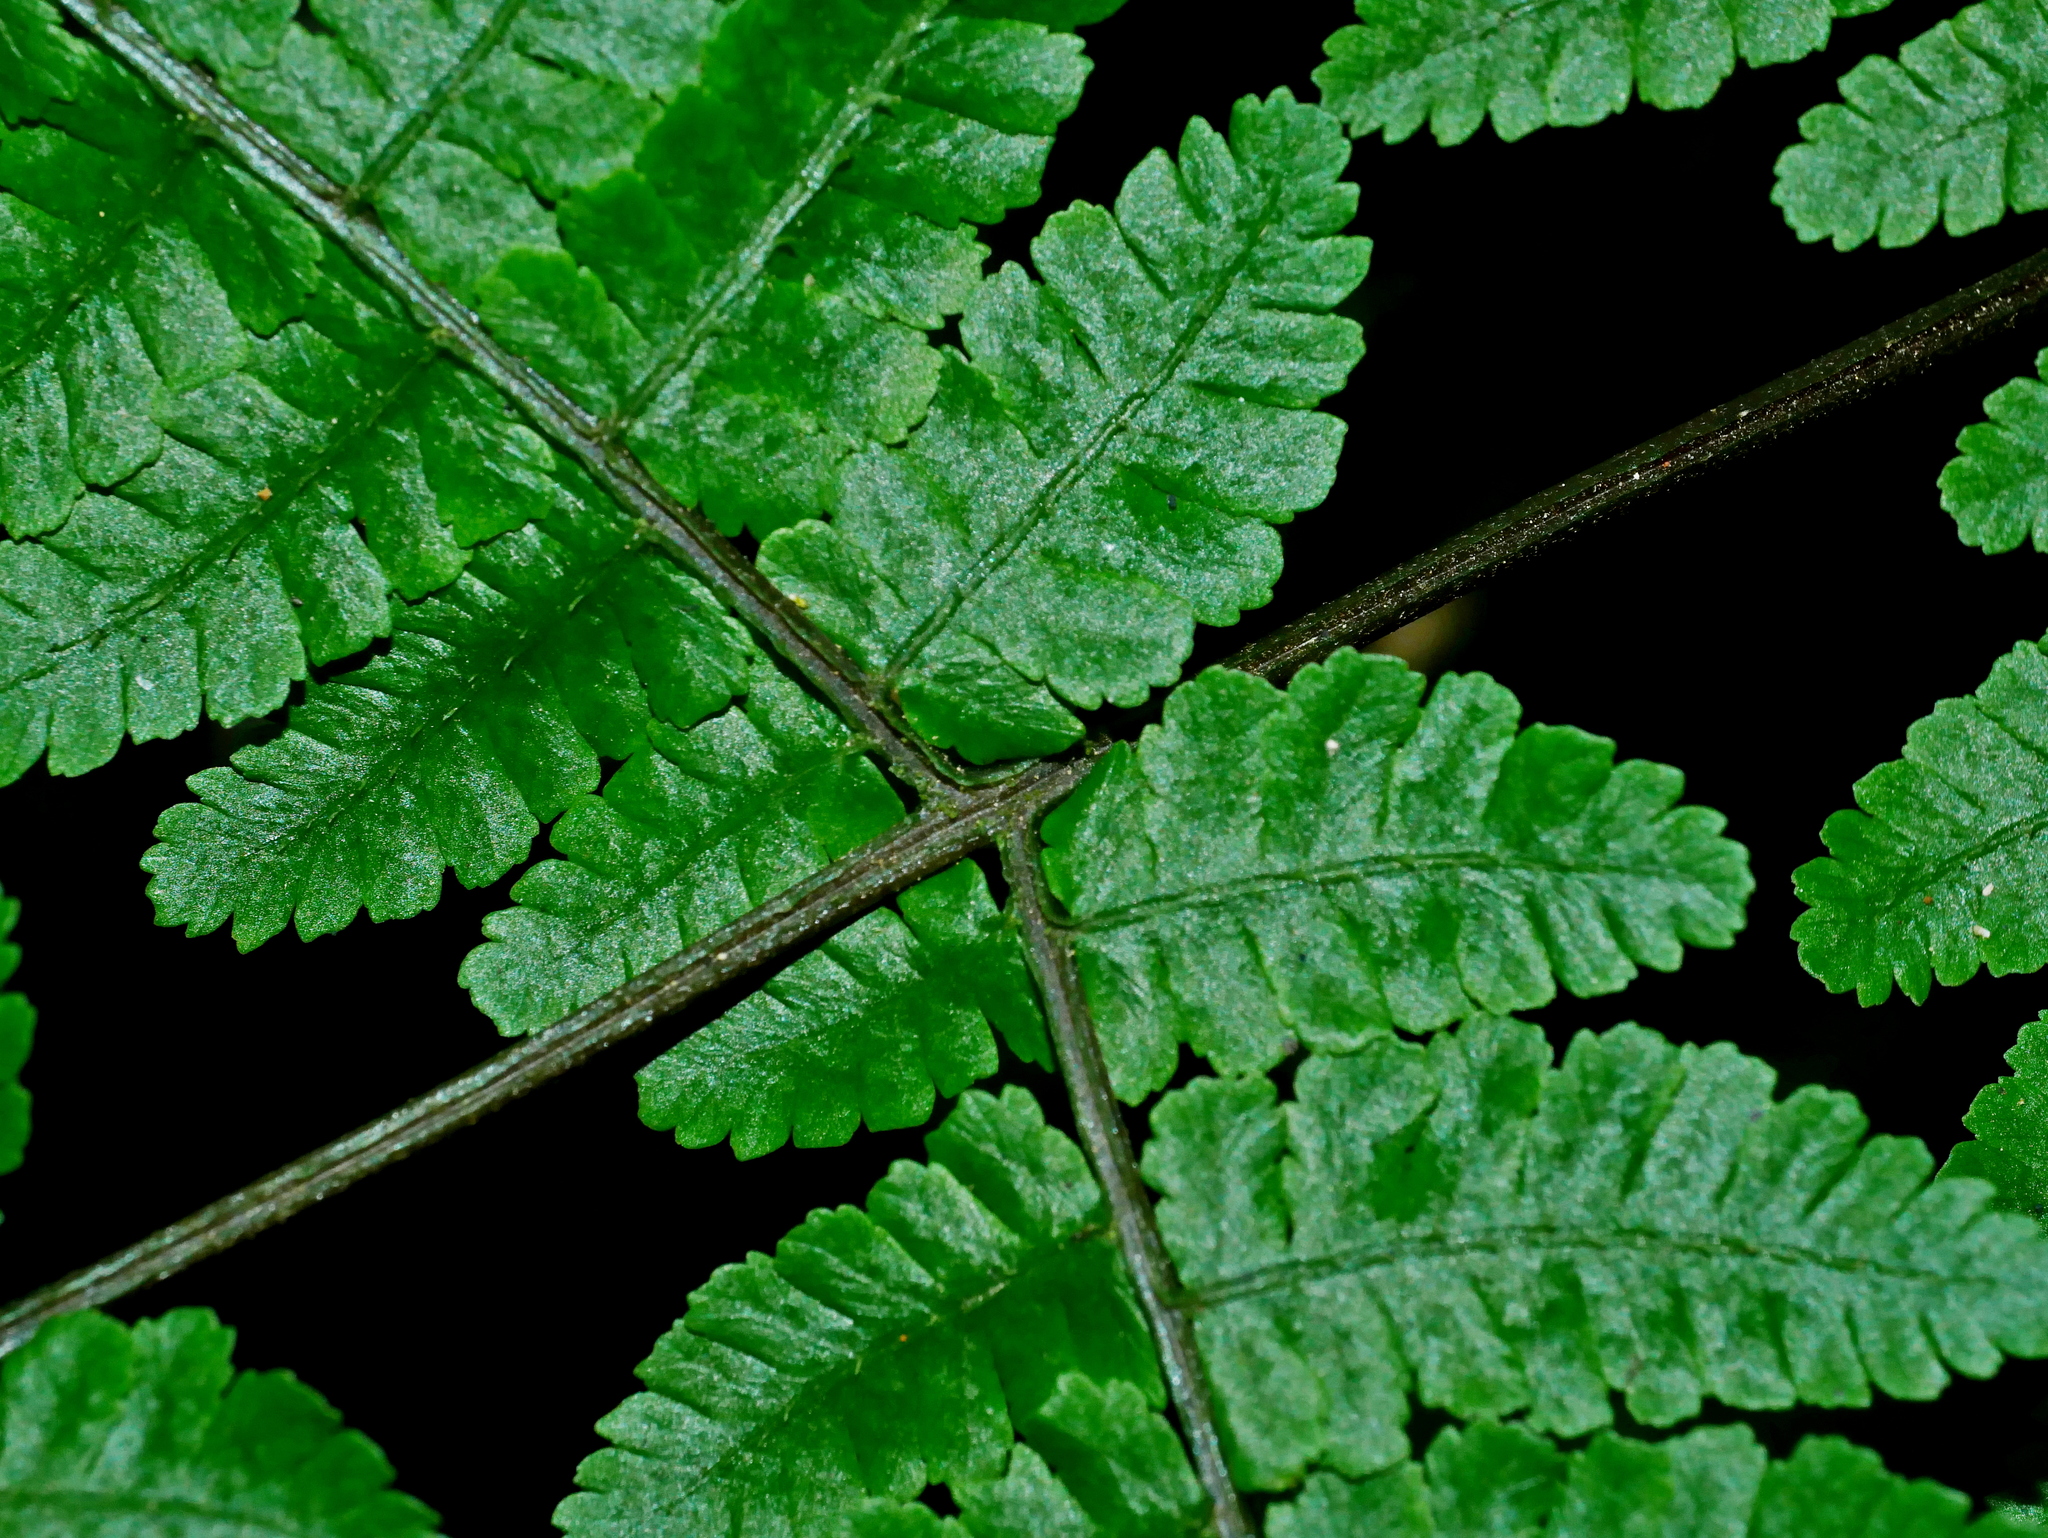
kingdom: Plantae
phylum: Tracheophyta
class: Polypodiopsida
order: Polypodiales
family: Athyriaceae
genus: Cornopteris
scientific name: Cornopteris banajaoensis
